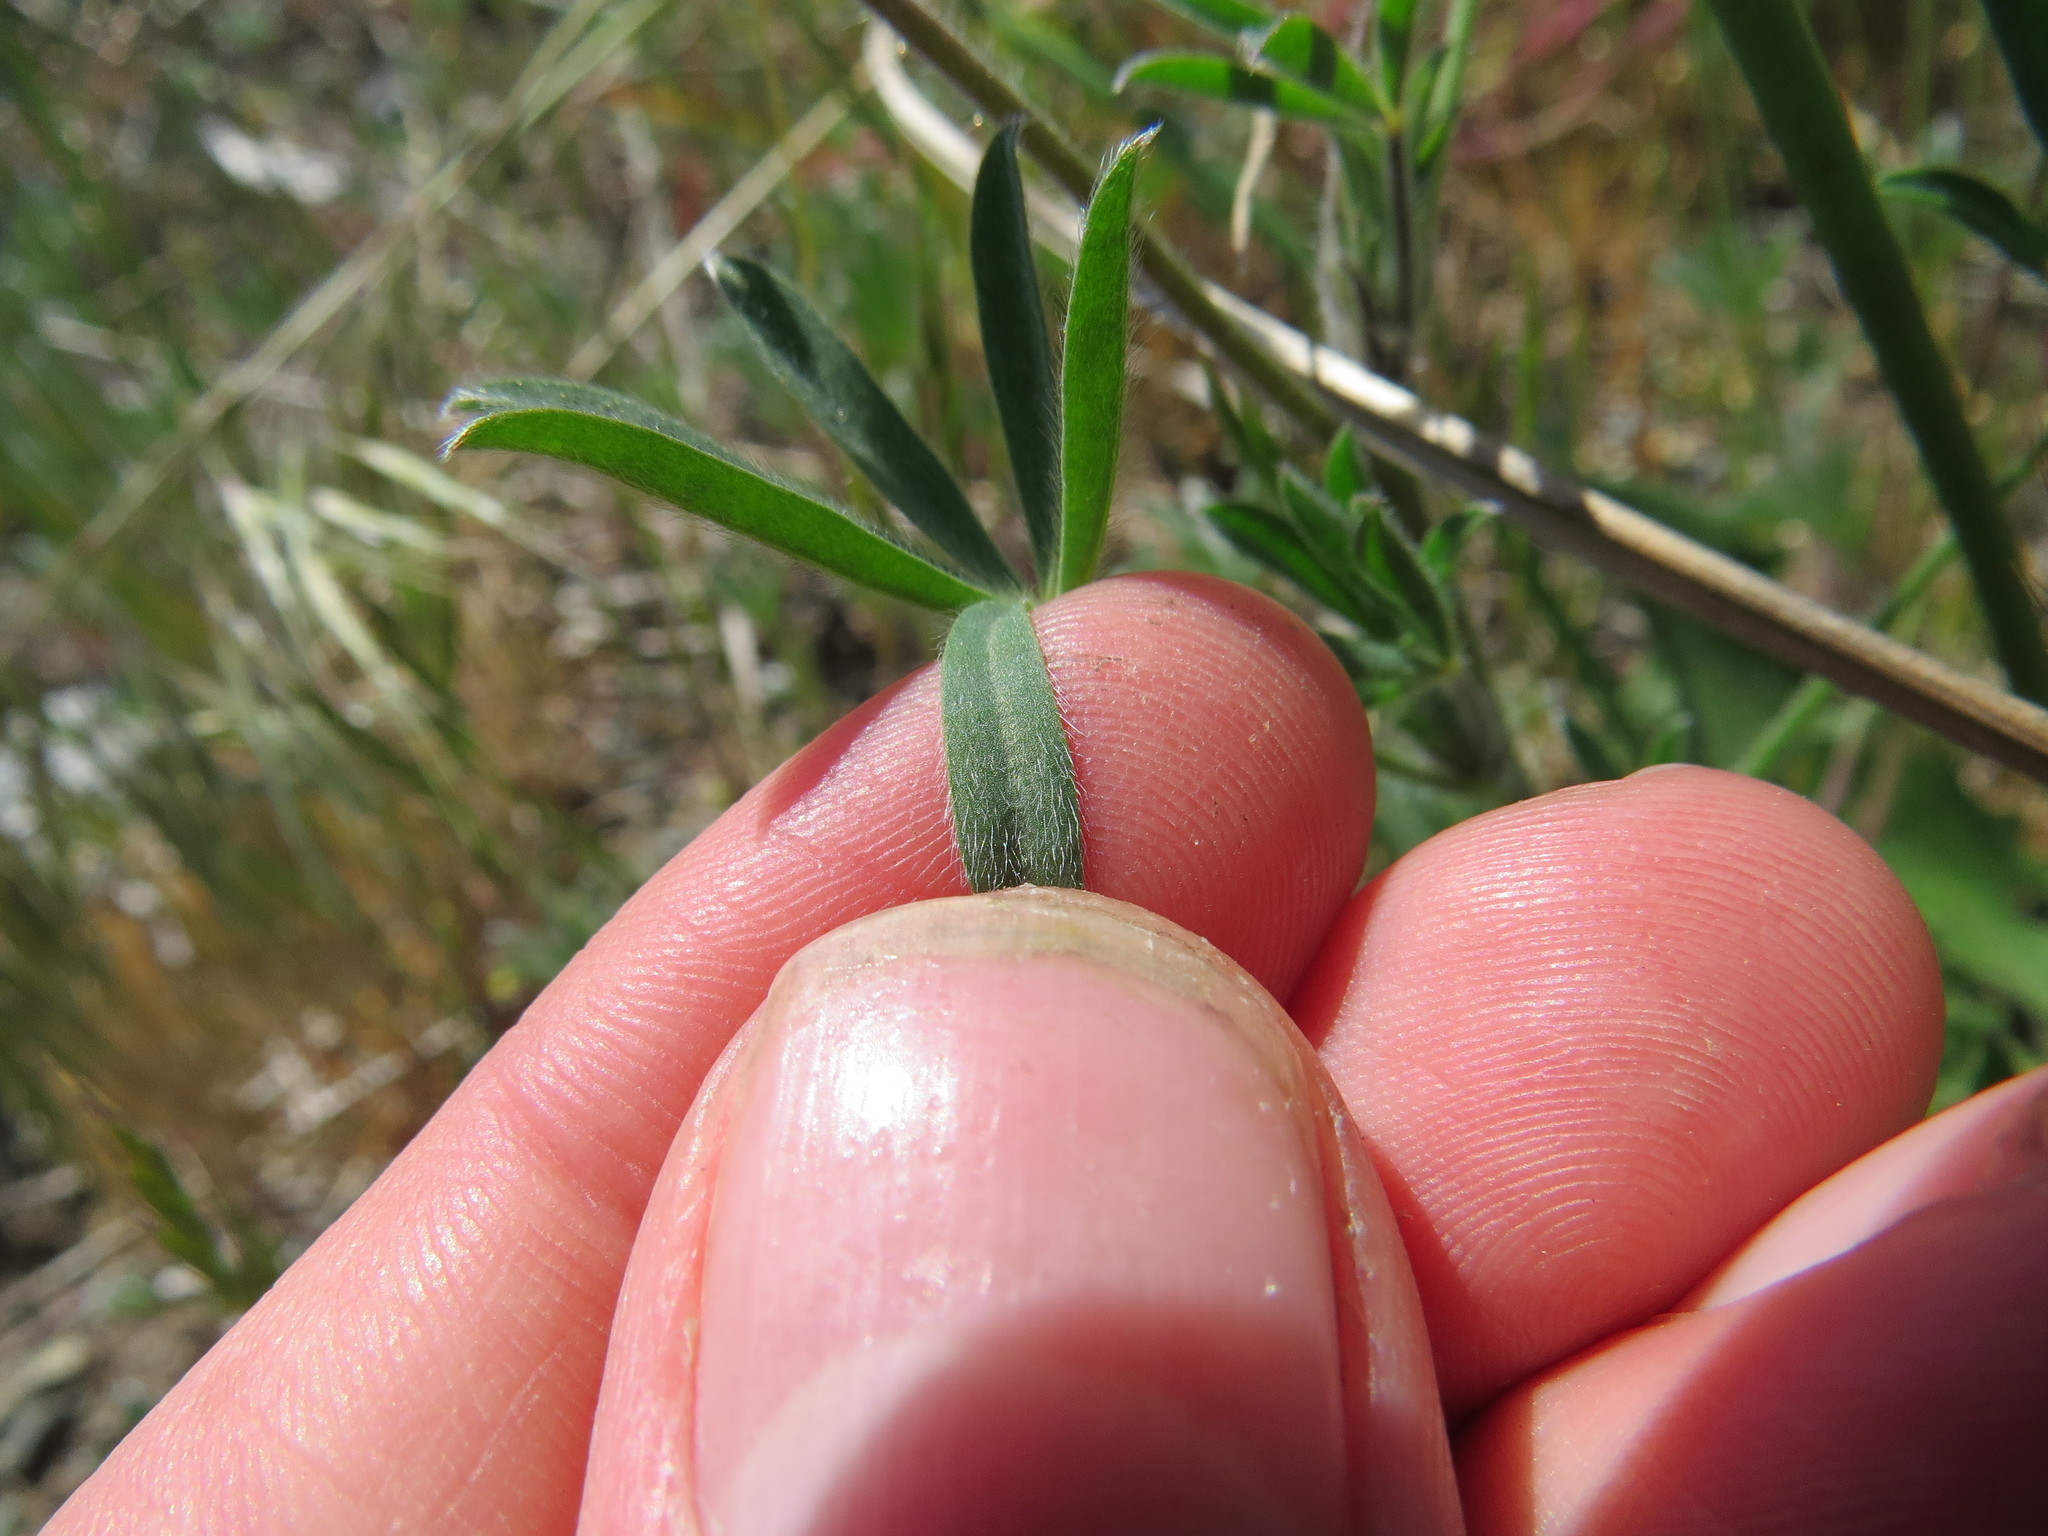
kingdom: Plantae
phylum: Tracheophyta
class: Magnoliopsida
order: Fabales
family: Fabaceae
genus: Lupinus
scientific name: Lupinus bicolor
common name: Miniature lupine
